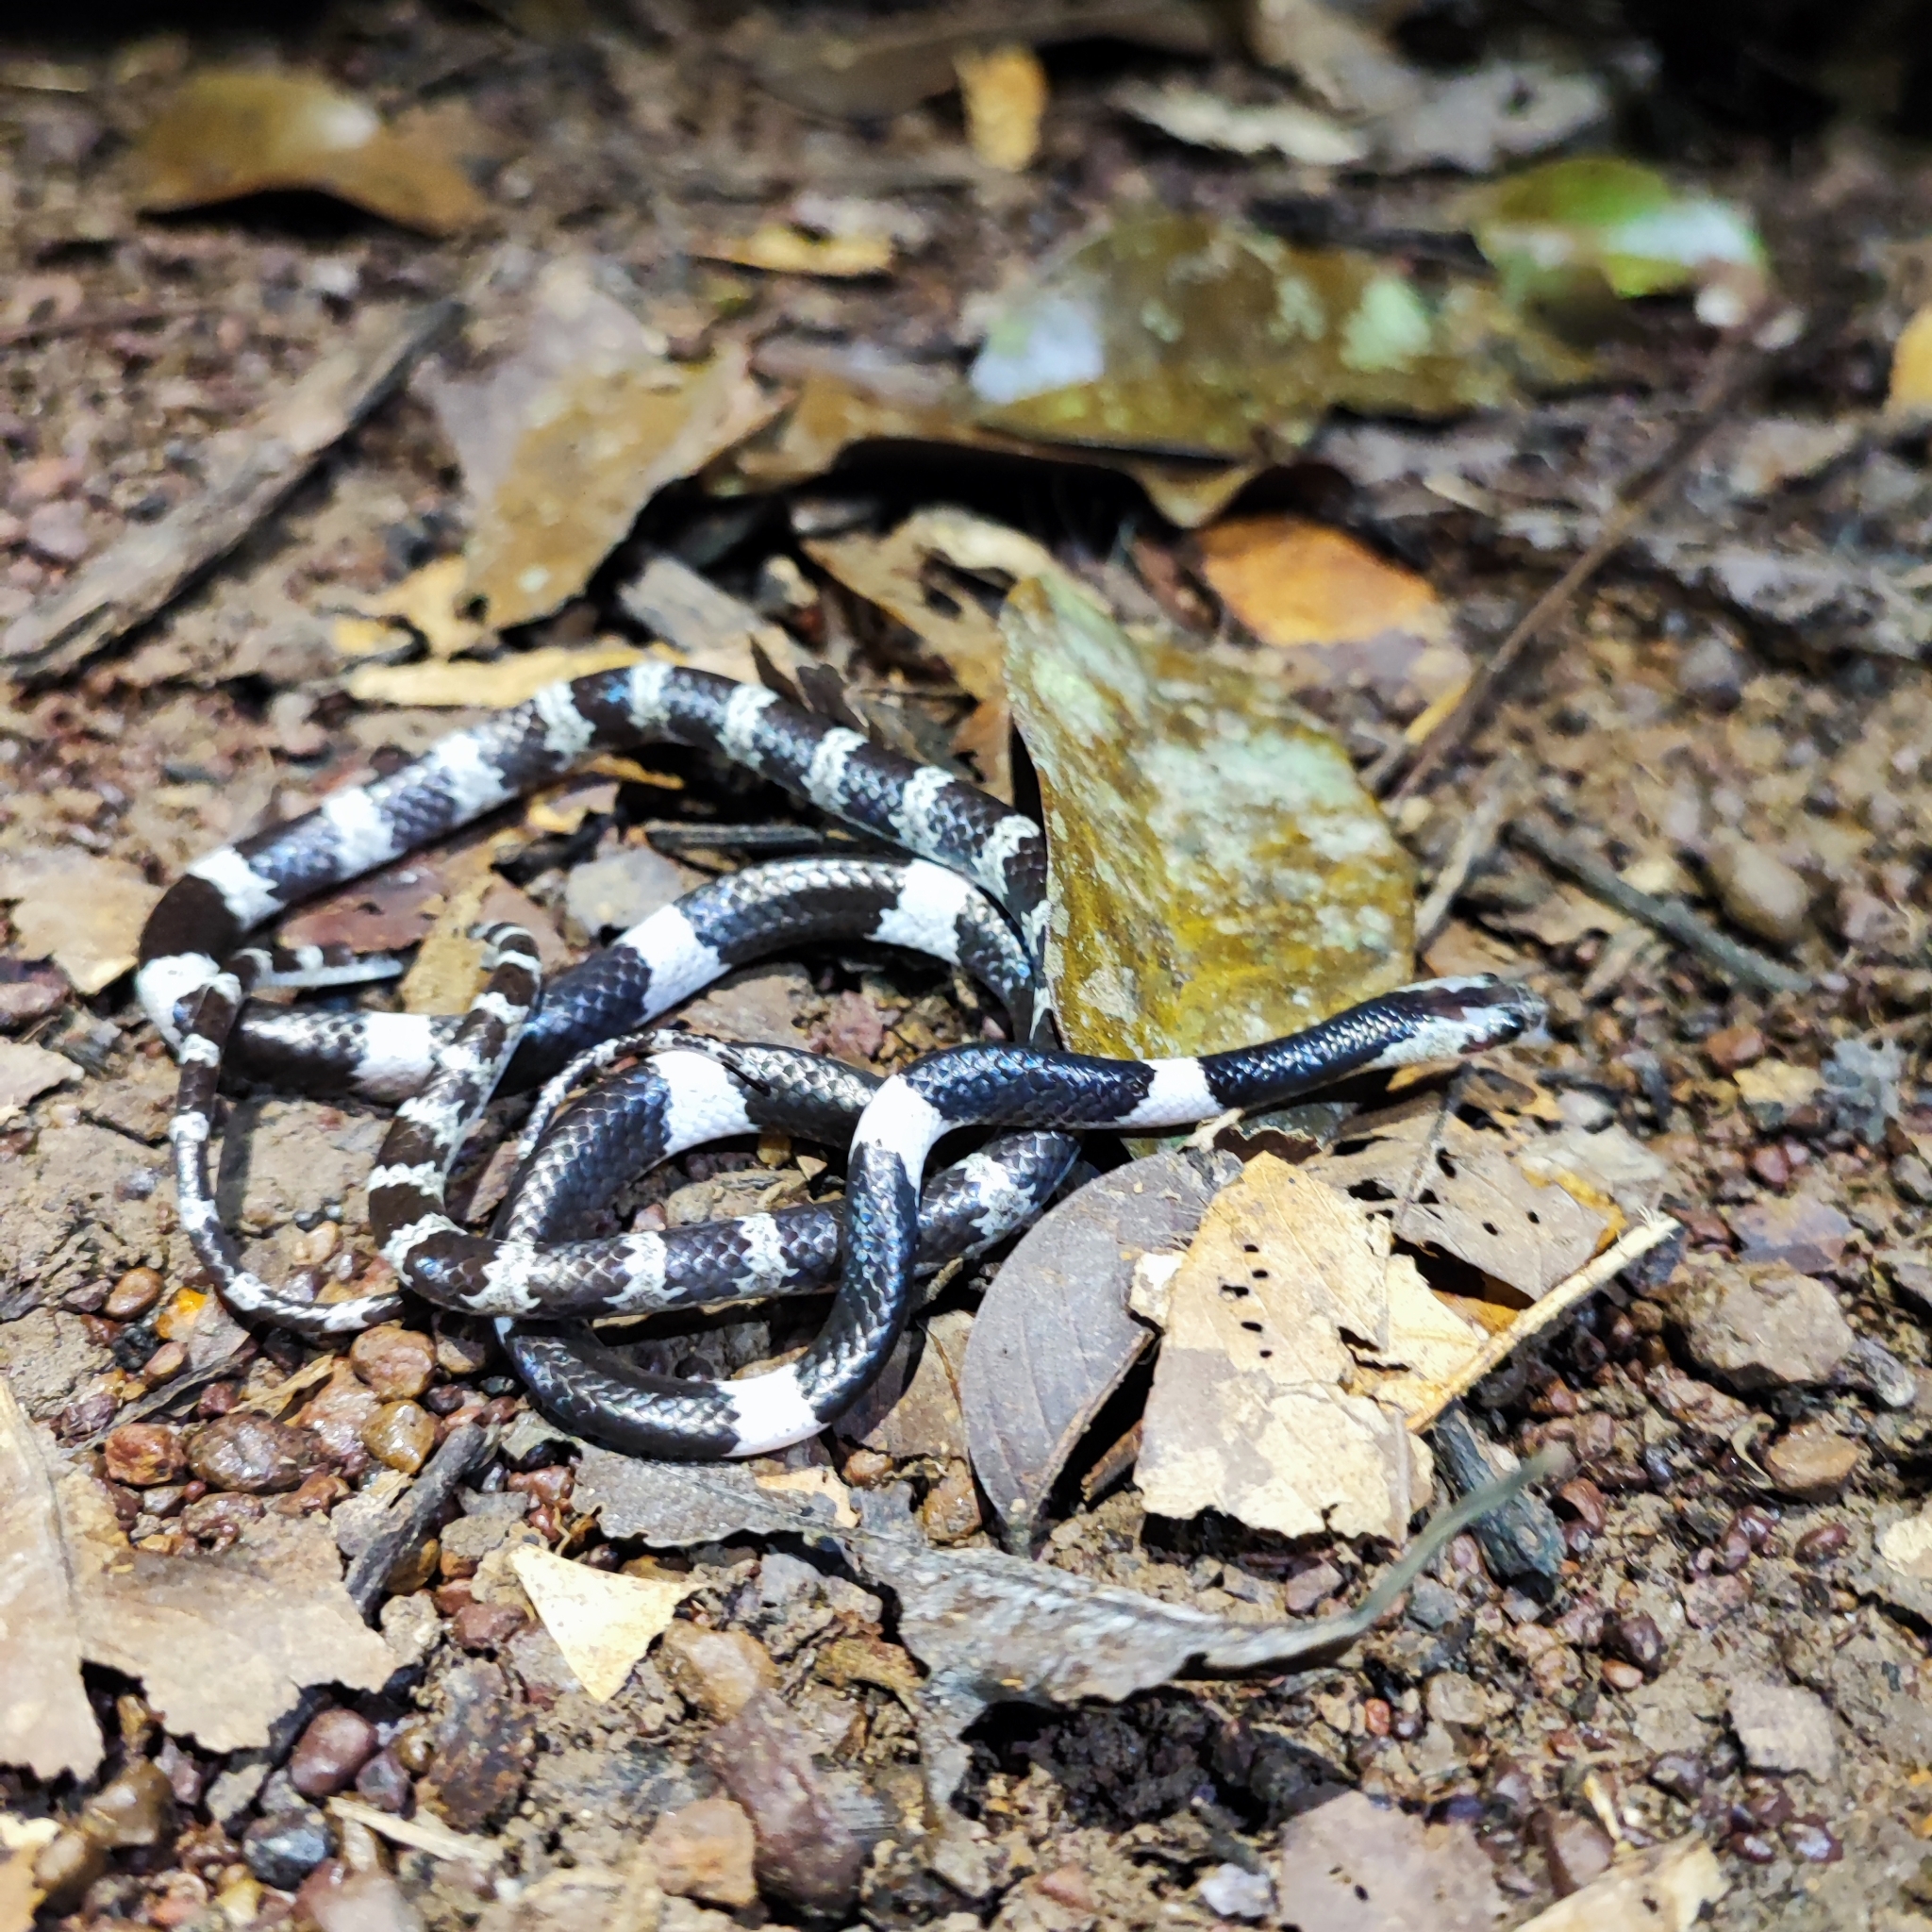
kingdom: Animalia
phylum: Chordata
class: Squamata
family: Colubridae
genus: Lycodon
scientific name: Lycodon davisonii
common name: Blanford's bridal snake
